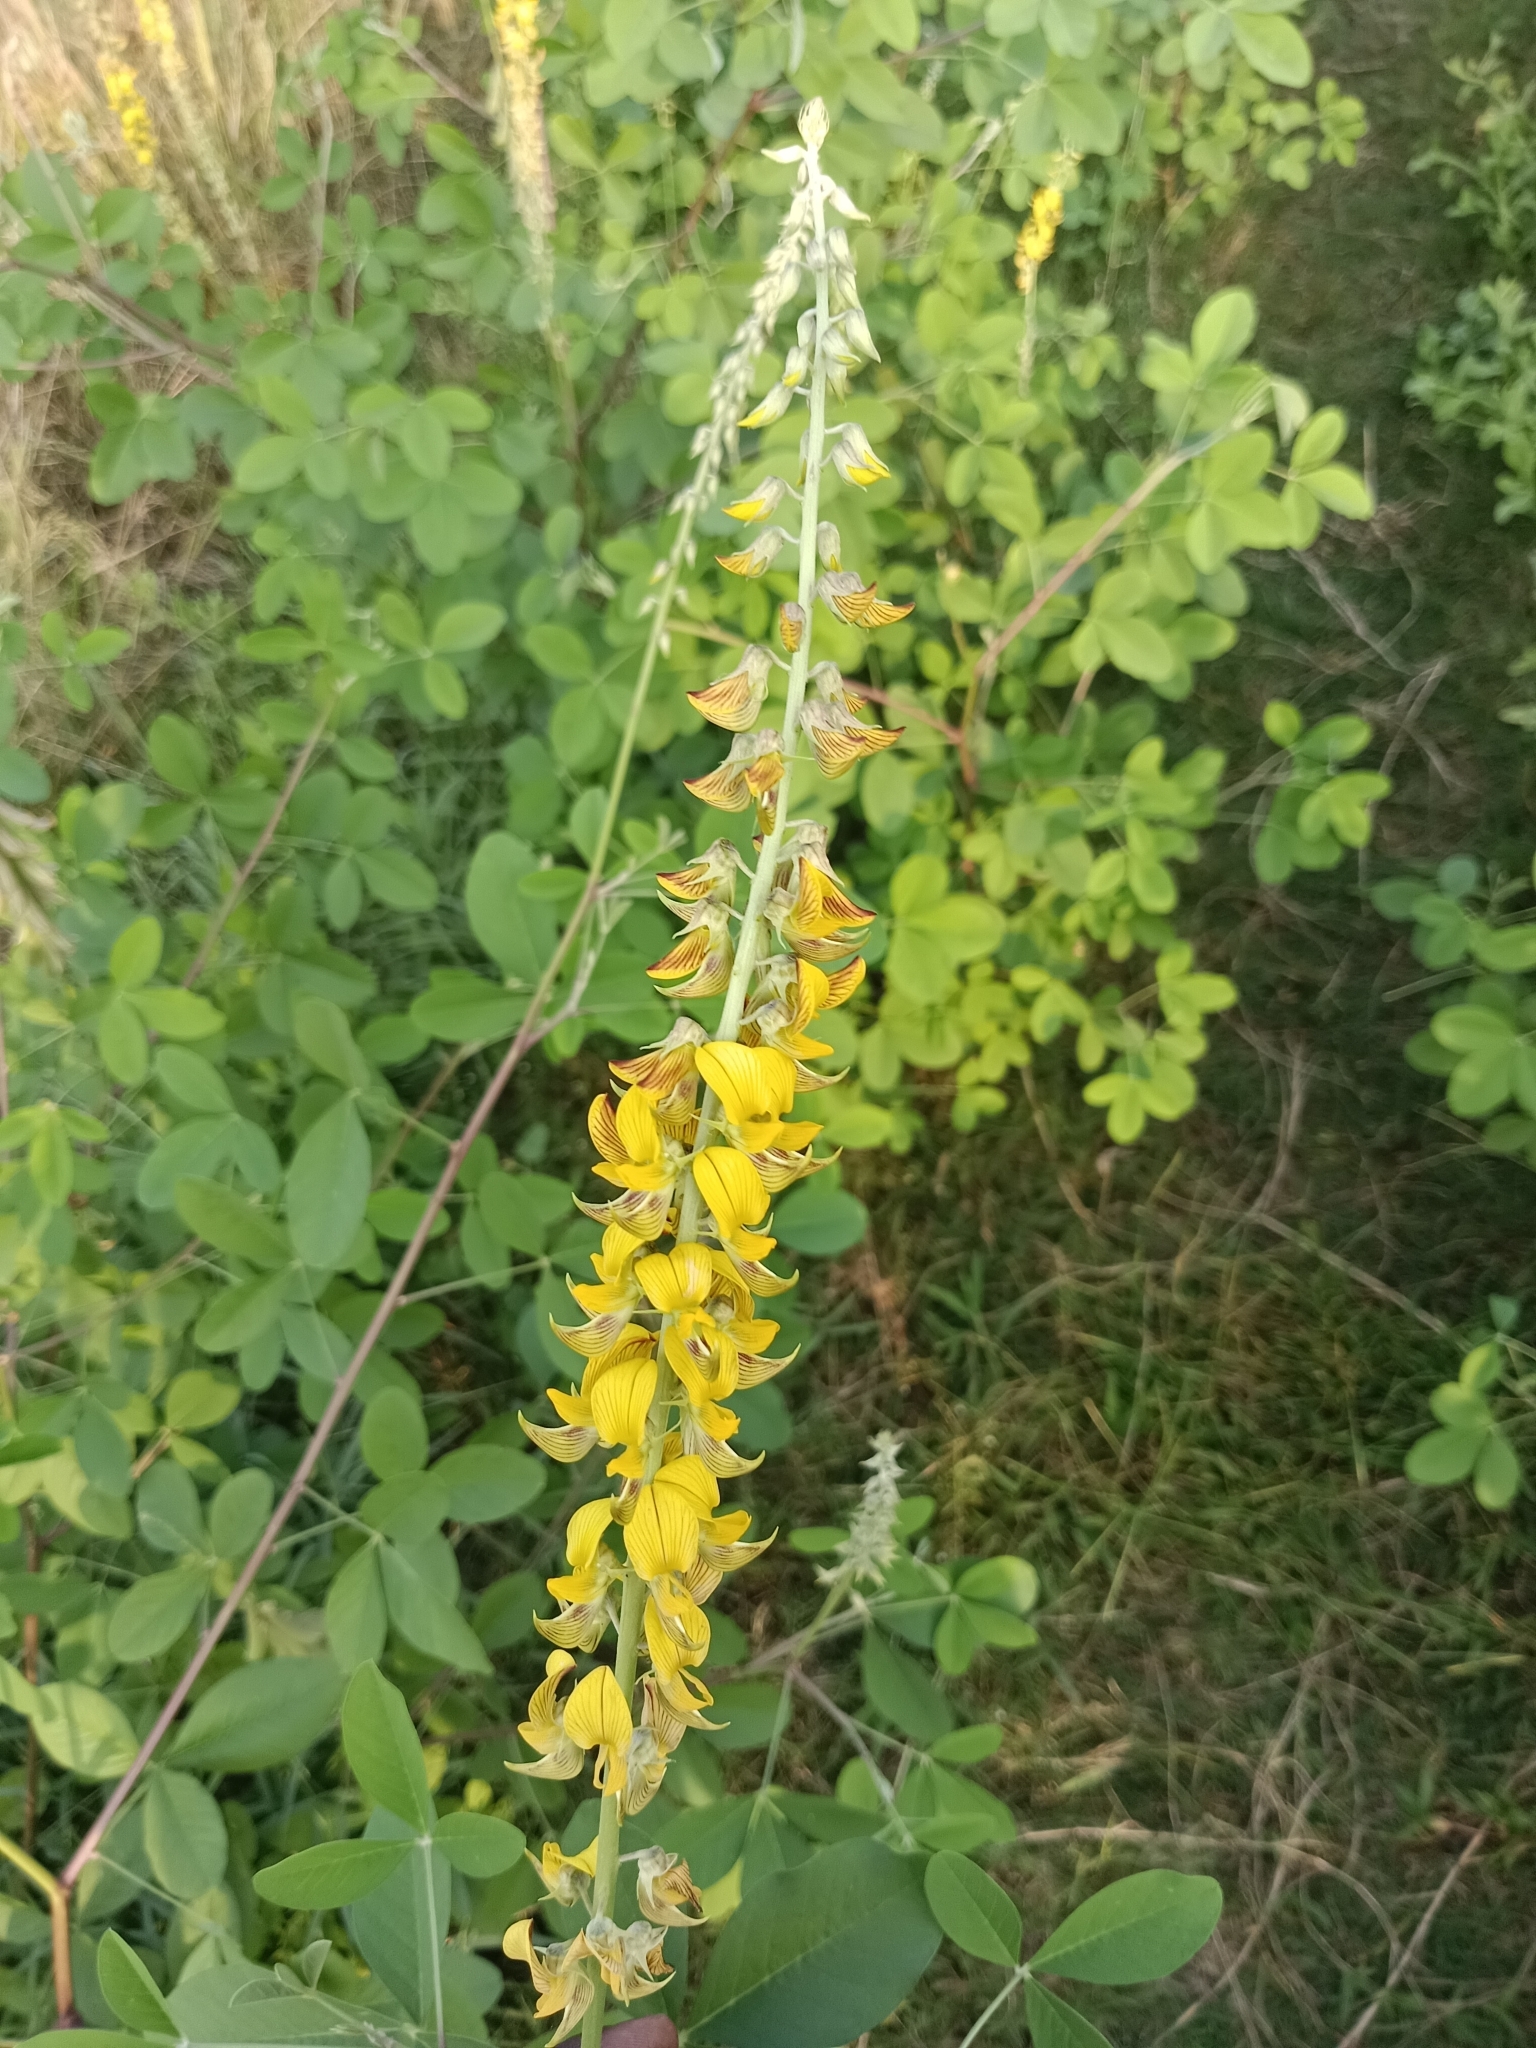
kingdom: Plantae
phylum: Tracheophyta
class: Magnoliopsida
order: Fabales
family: Fabaceae
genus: Crotalaria
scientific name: Crotalaria pallida
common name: Smooth rattlebox
